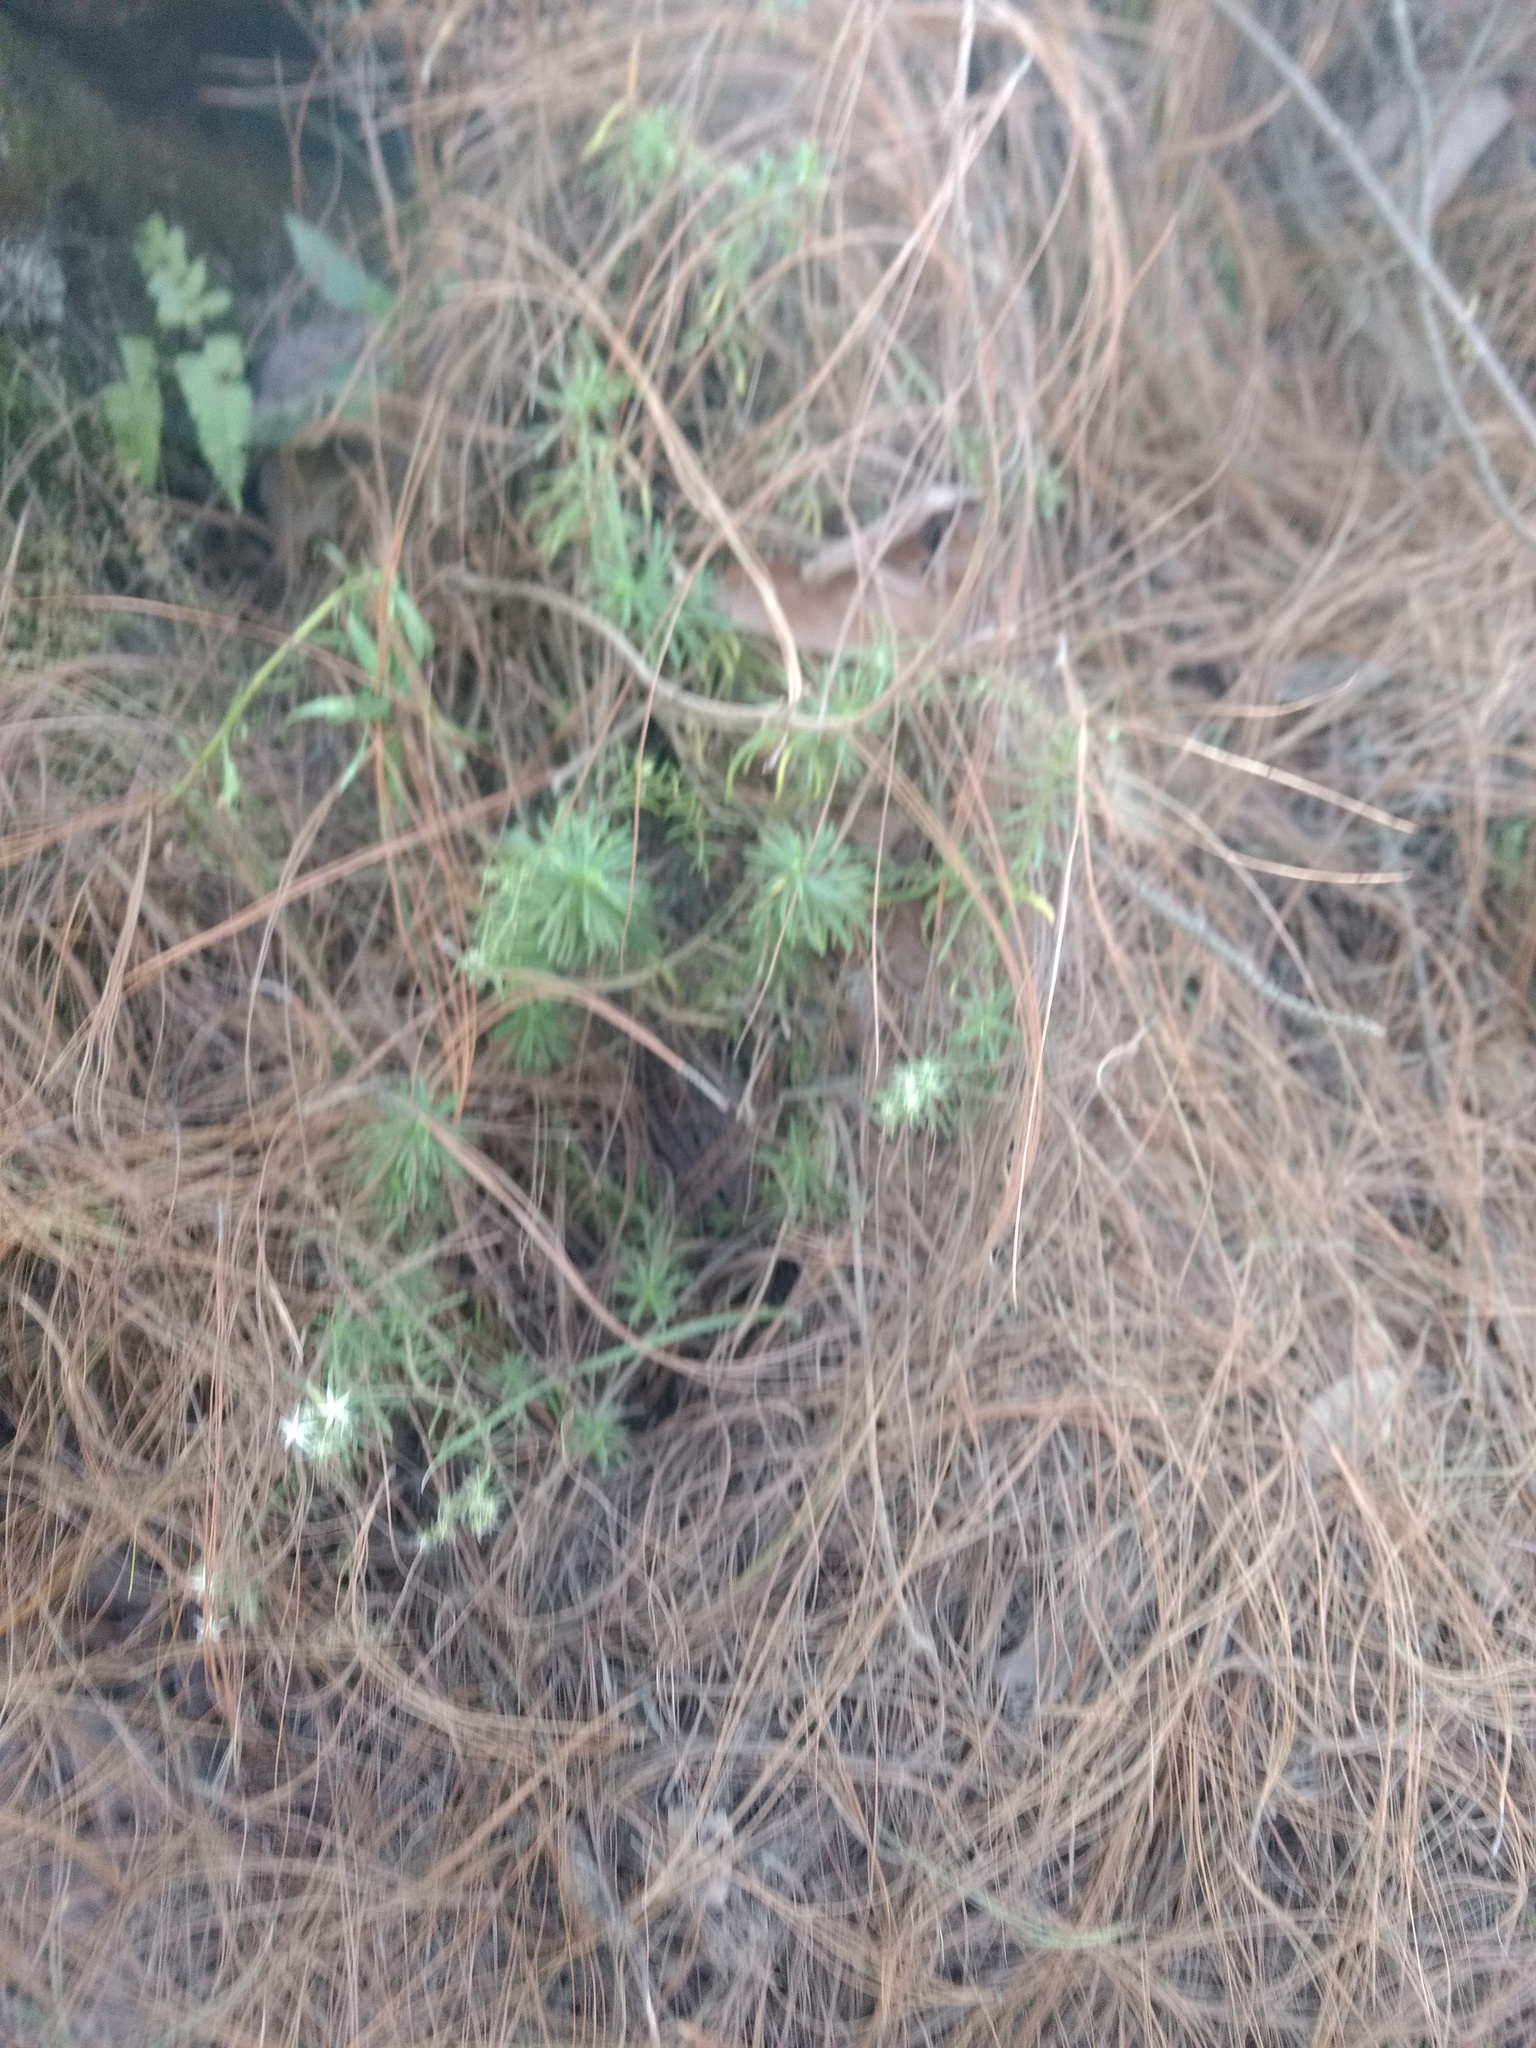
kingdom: Plantae
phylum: Tracheophyta
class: Magnoliopsida
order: Saxifragales
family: Crassulaceae
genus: Sedum
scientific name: Sedum bourgaei
